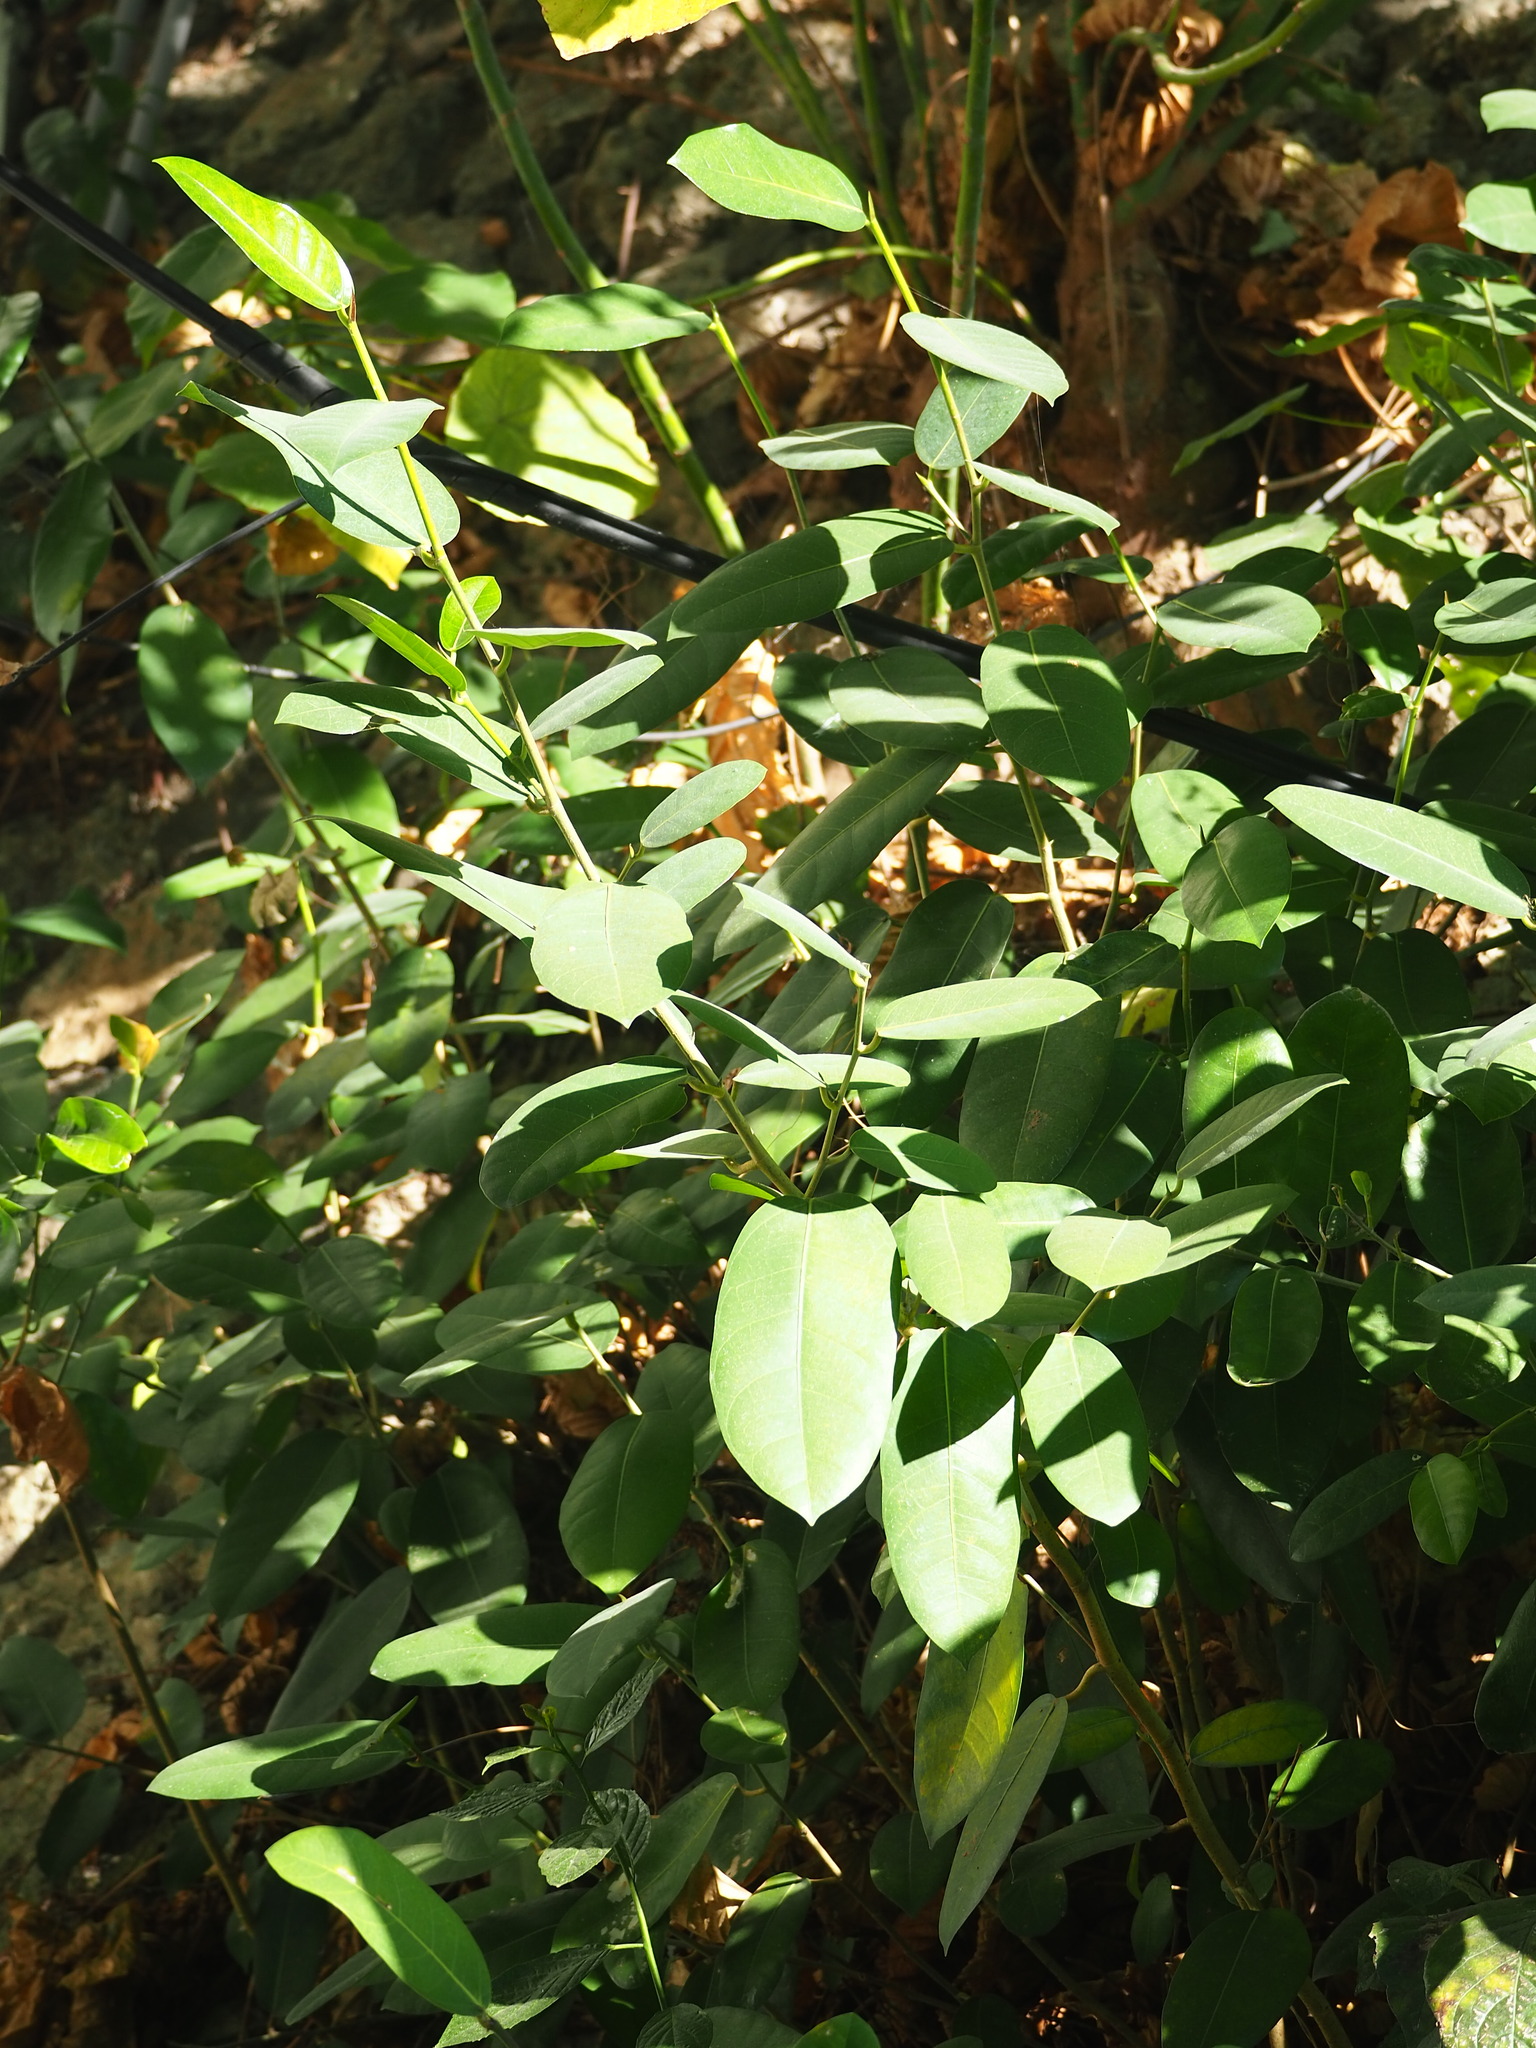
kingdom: Plantae
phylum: Tracheophyta
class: Magnoliopsida
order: Rosales
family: Moraceae
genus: Ficus
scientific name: Ficus tinctoria
